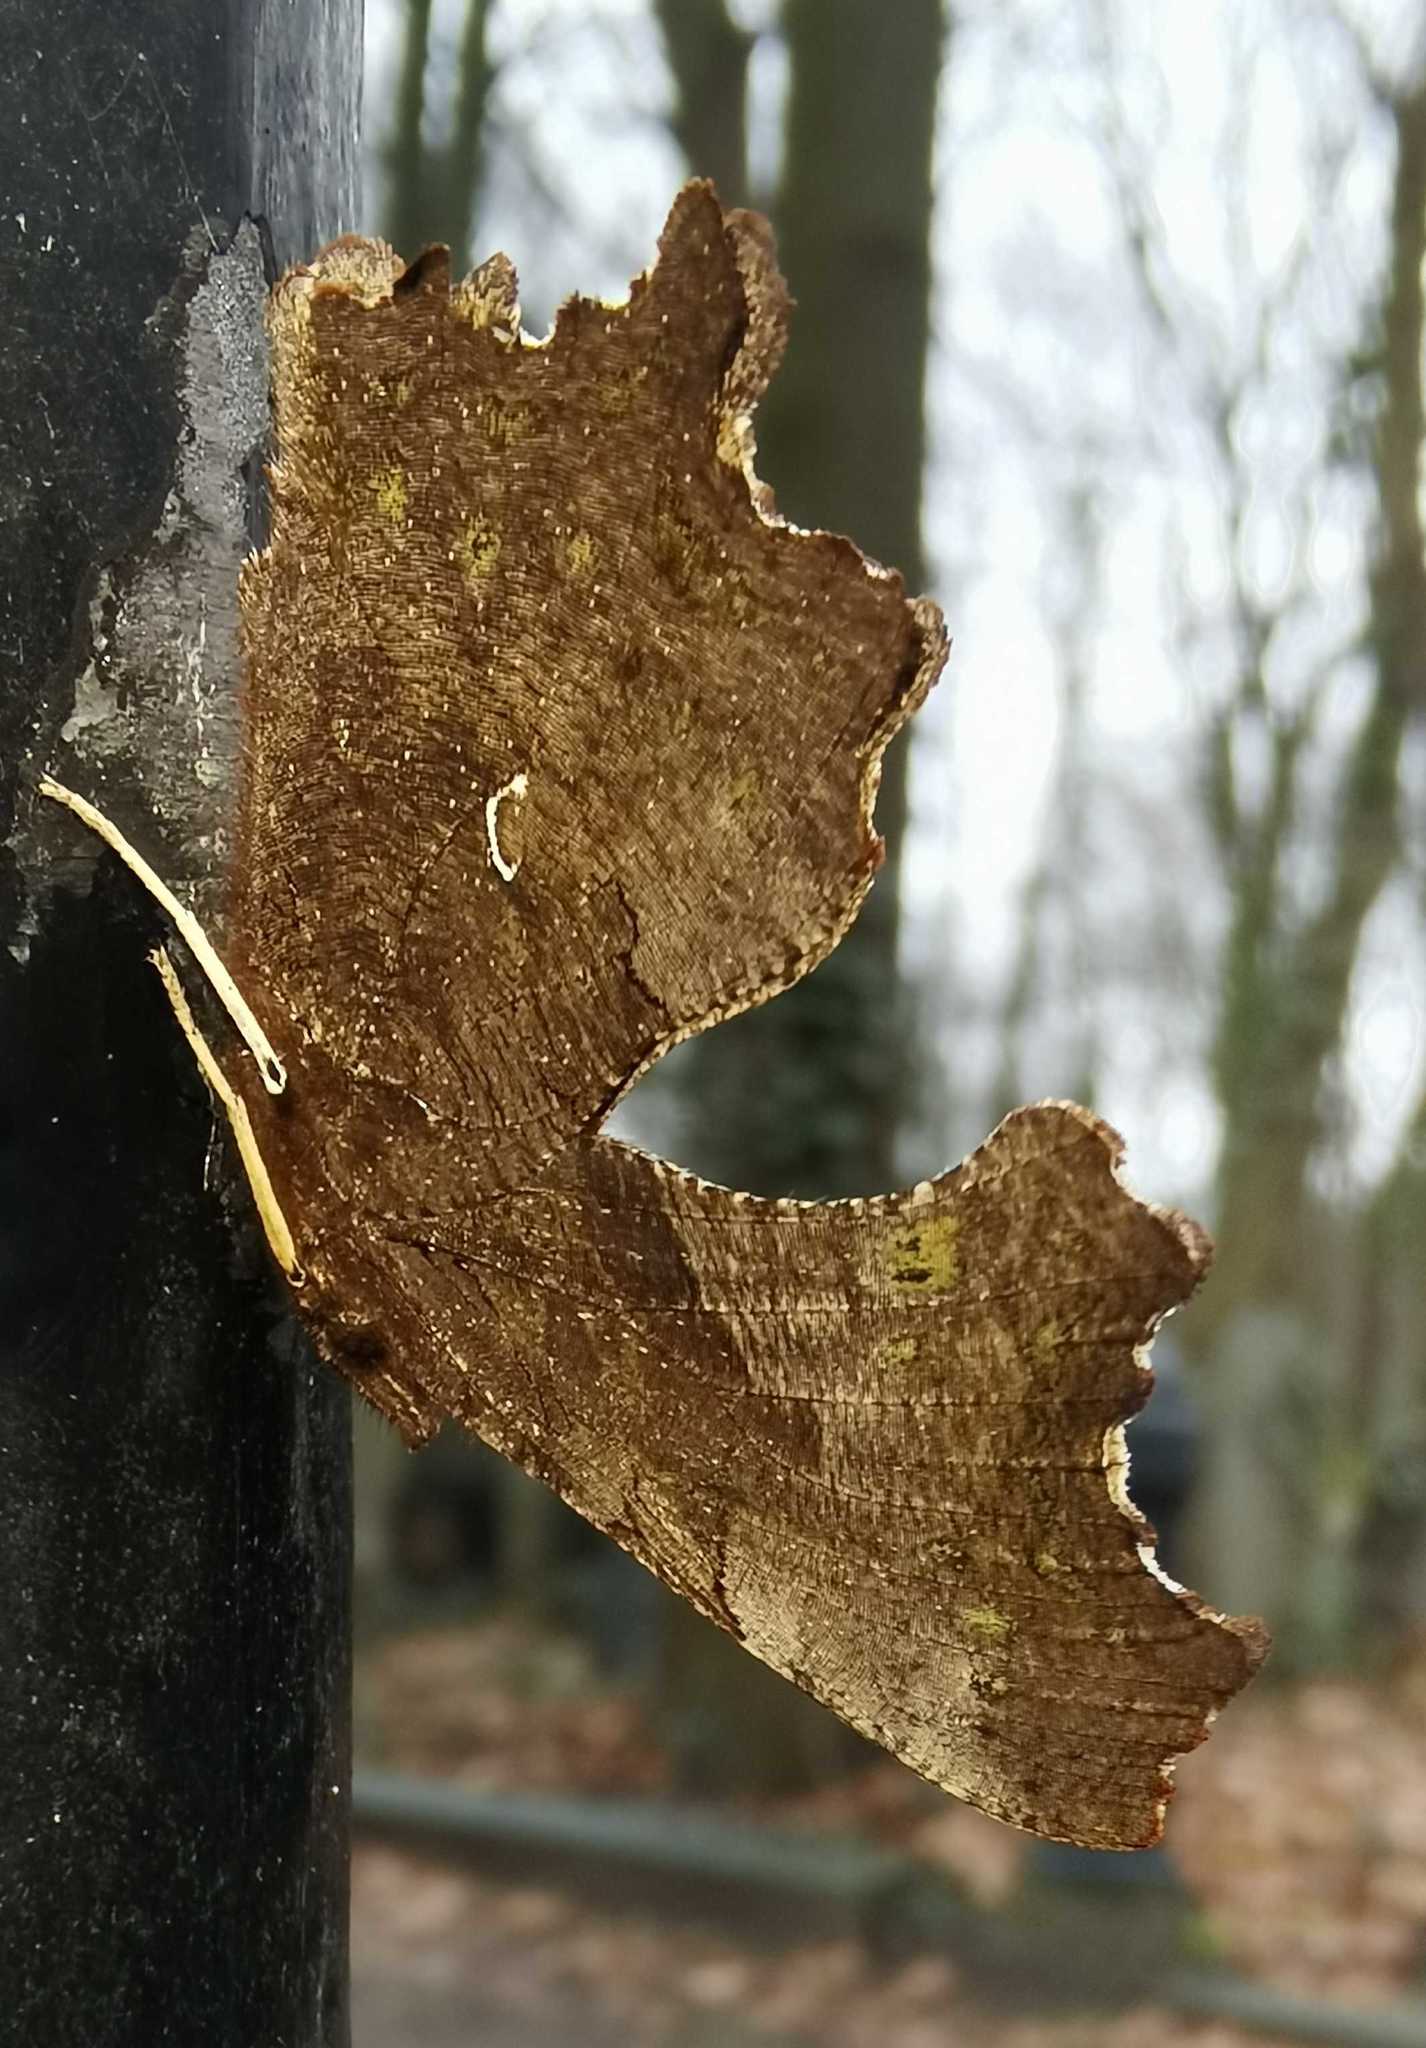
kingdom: Animalia
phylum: Arthropoda
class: Insecta
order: Lepidoptera
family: Nymphalidae
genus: Polygonia
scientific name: Polygonia c-album
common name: Comma
